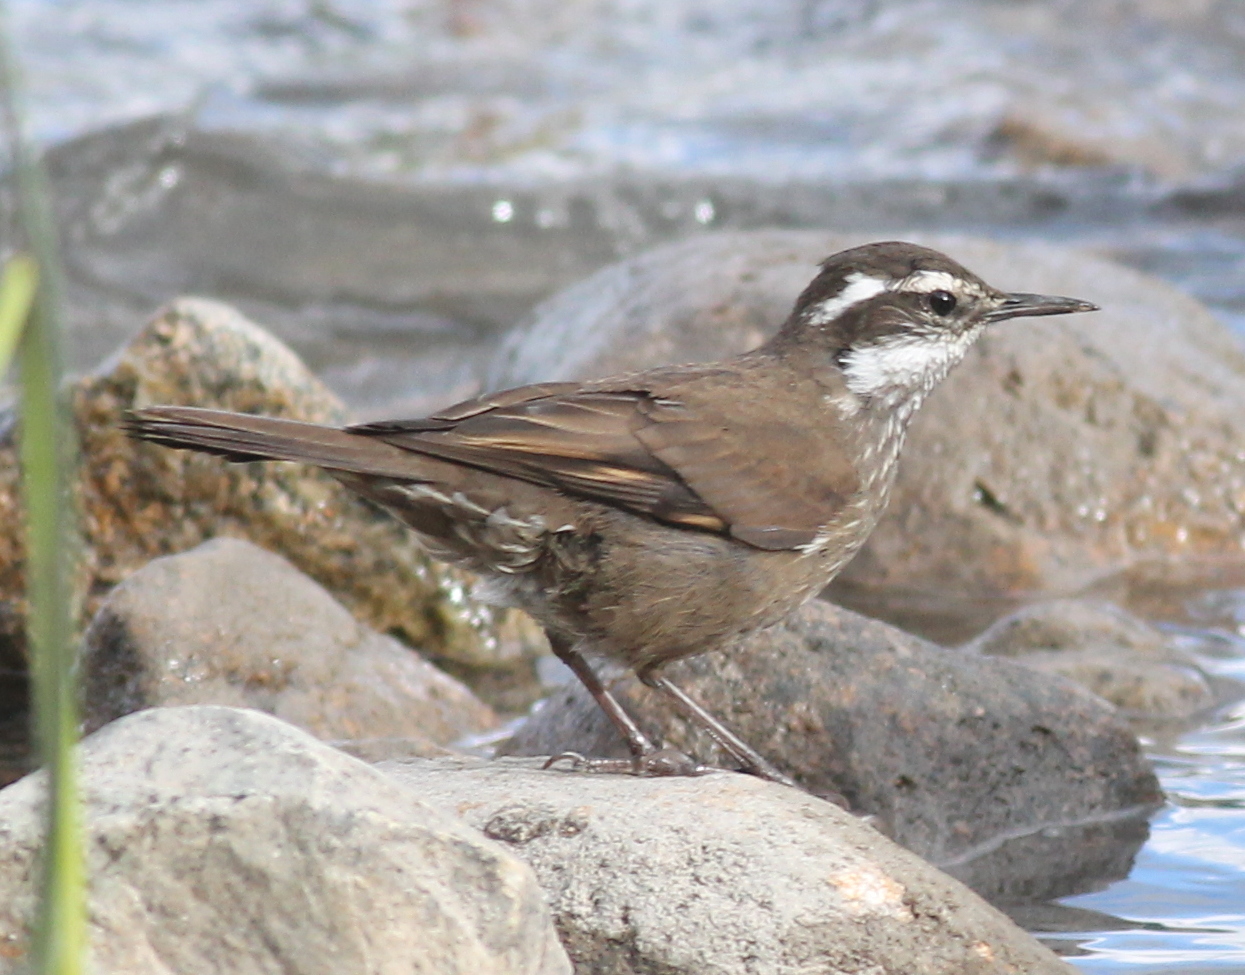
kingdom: Animalia
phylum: Chordata
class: Aves
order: Passeriformes
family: Furnariidae
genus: Cinclodes
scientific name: Cinclodes patagonicus
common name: Dark-bellied cinclodes
